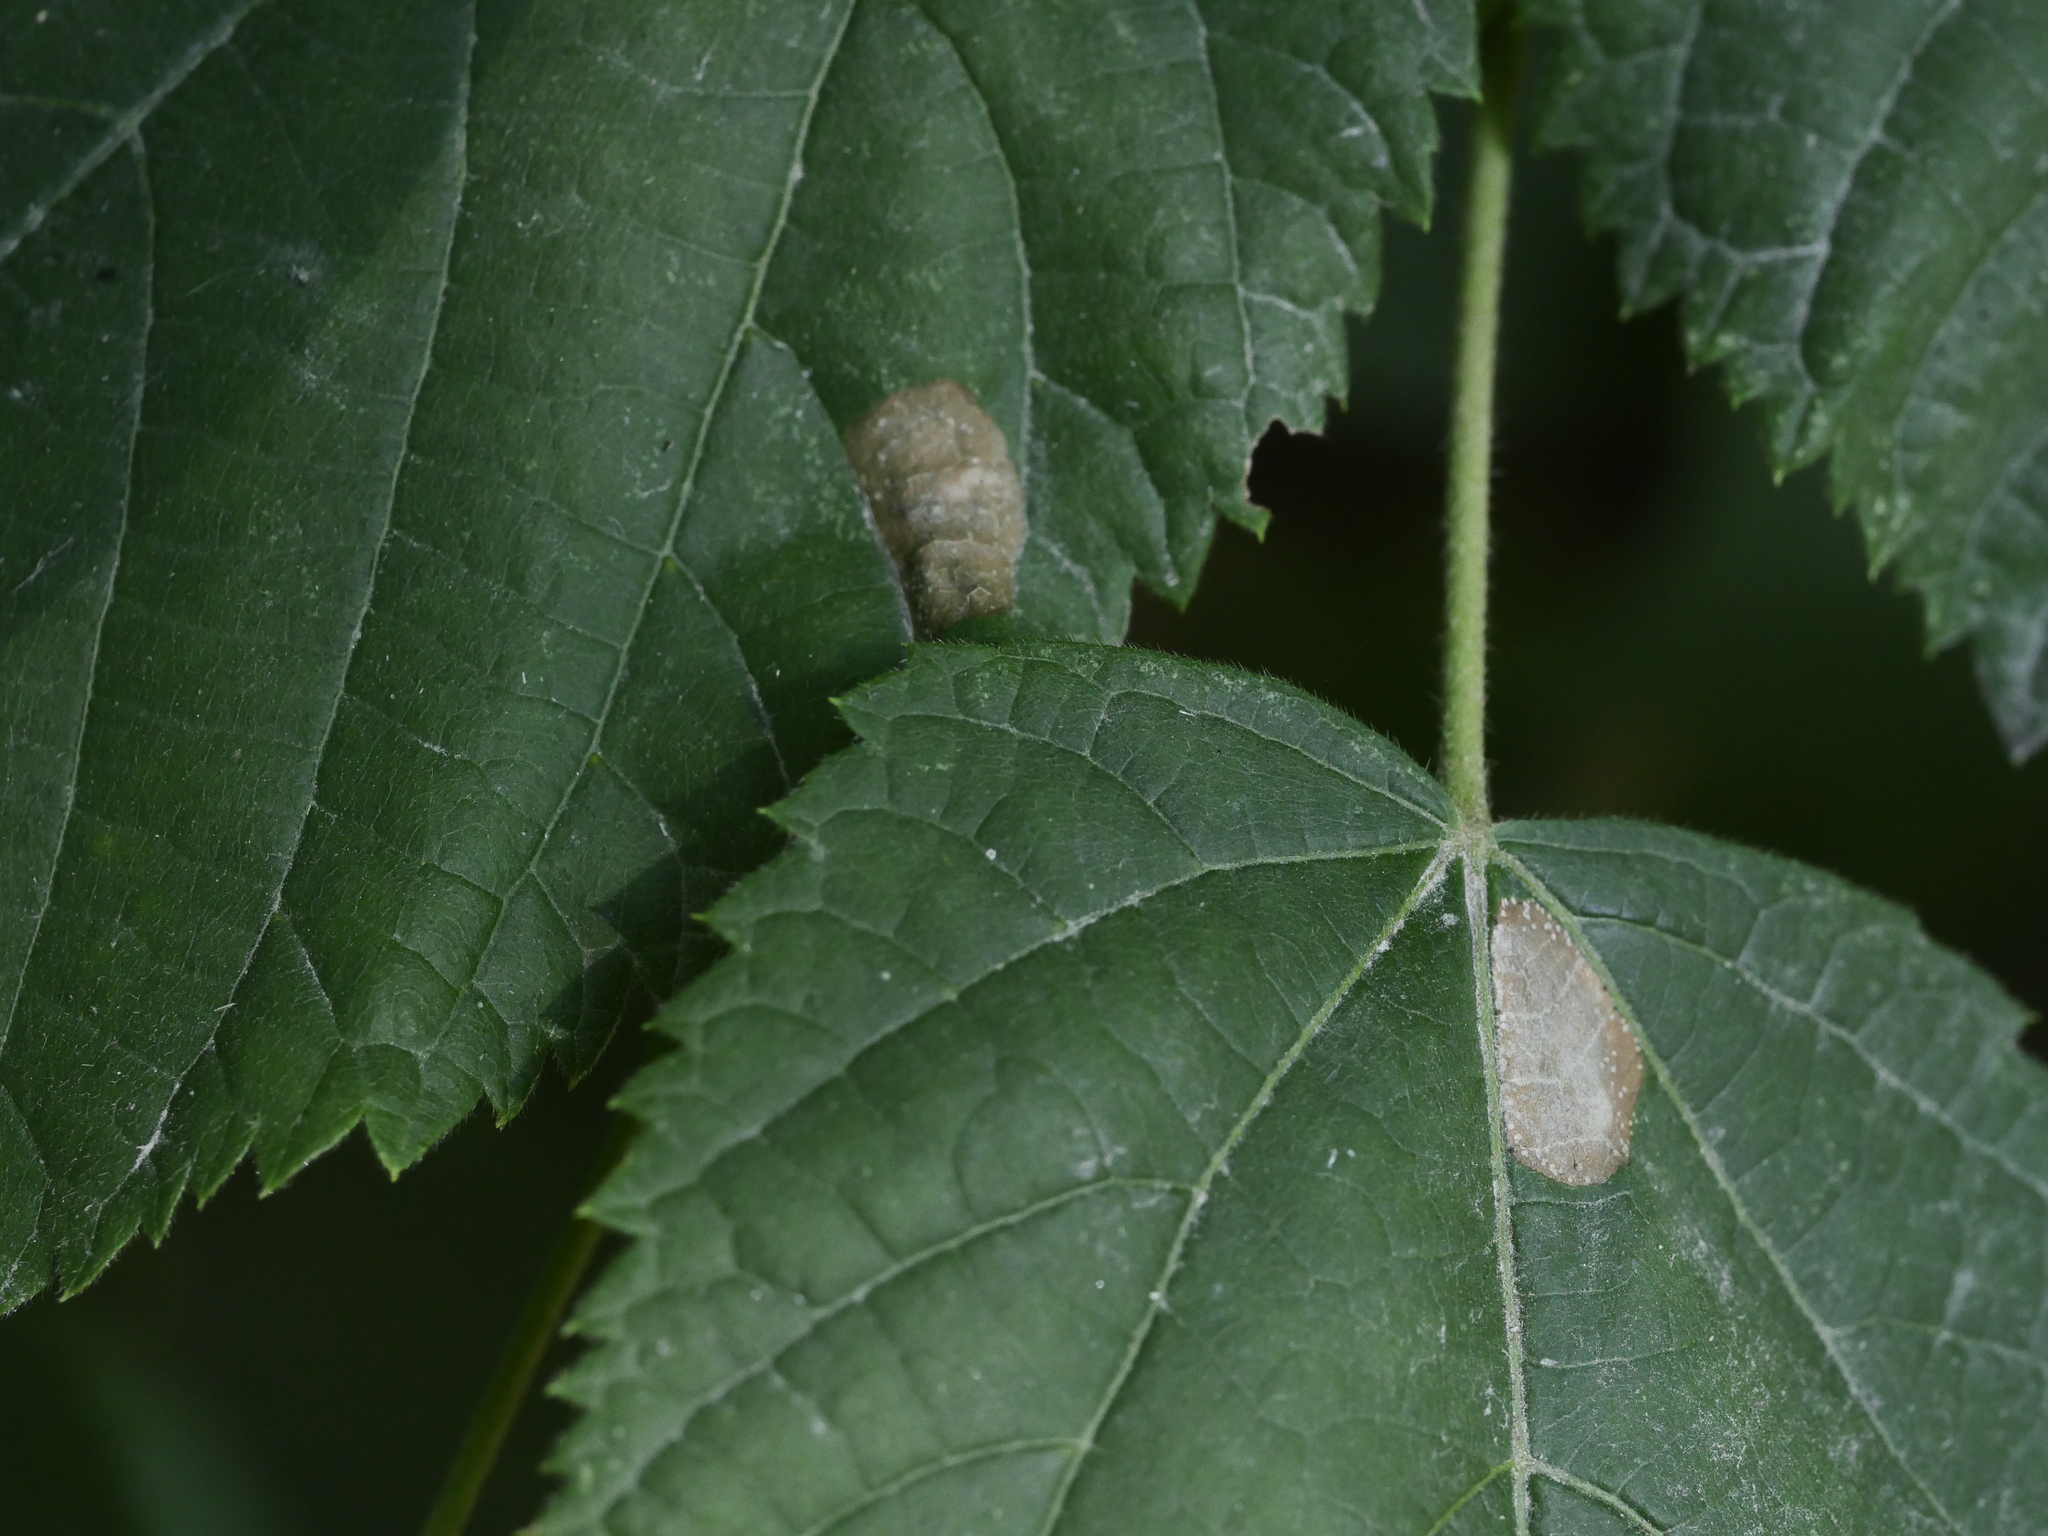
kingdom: Animalia
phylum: Arthropoda
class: Insecta
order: Lepidoptera
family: Gracillariidae
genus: Phyllonorycter
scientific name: Phyllonorycter issikii
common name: Linden midget
